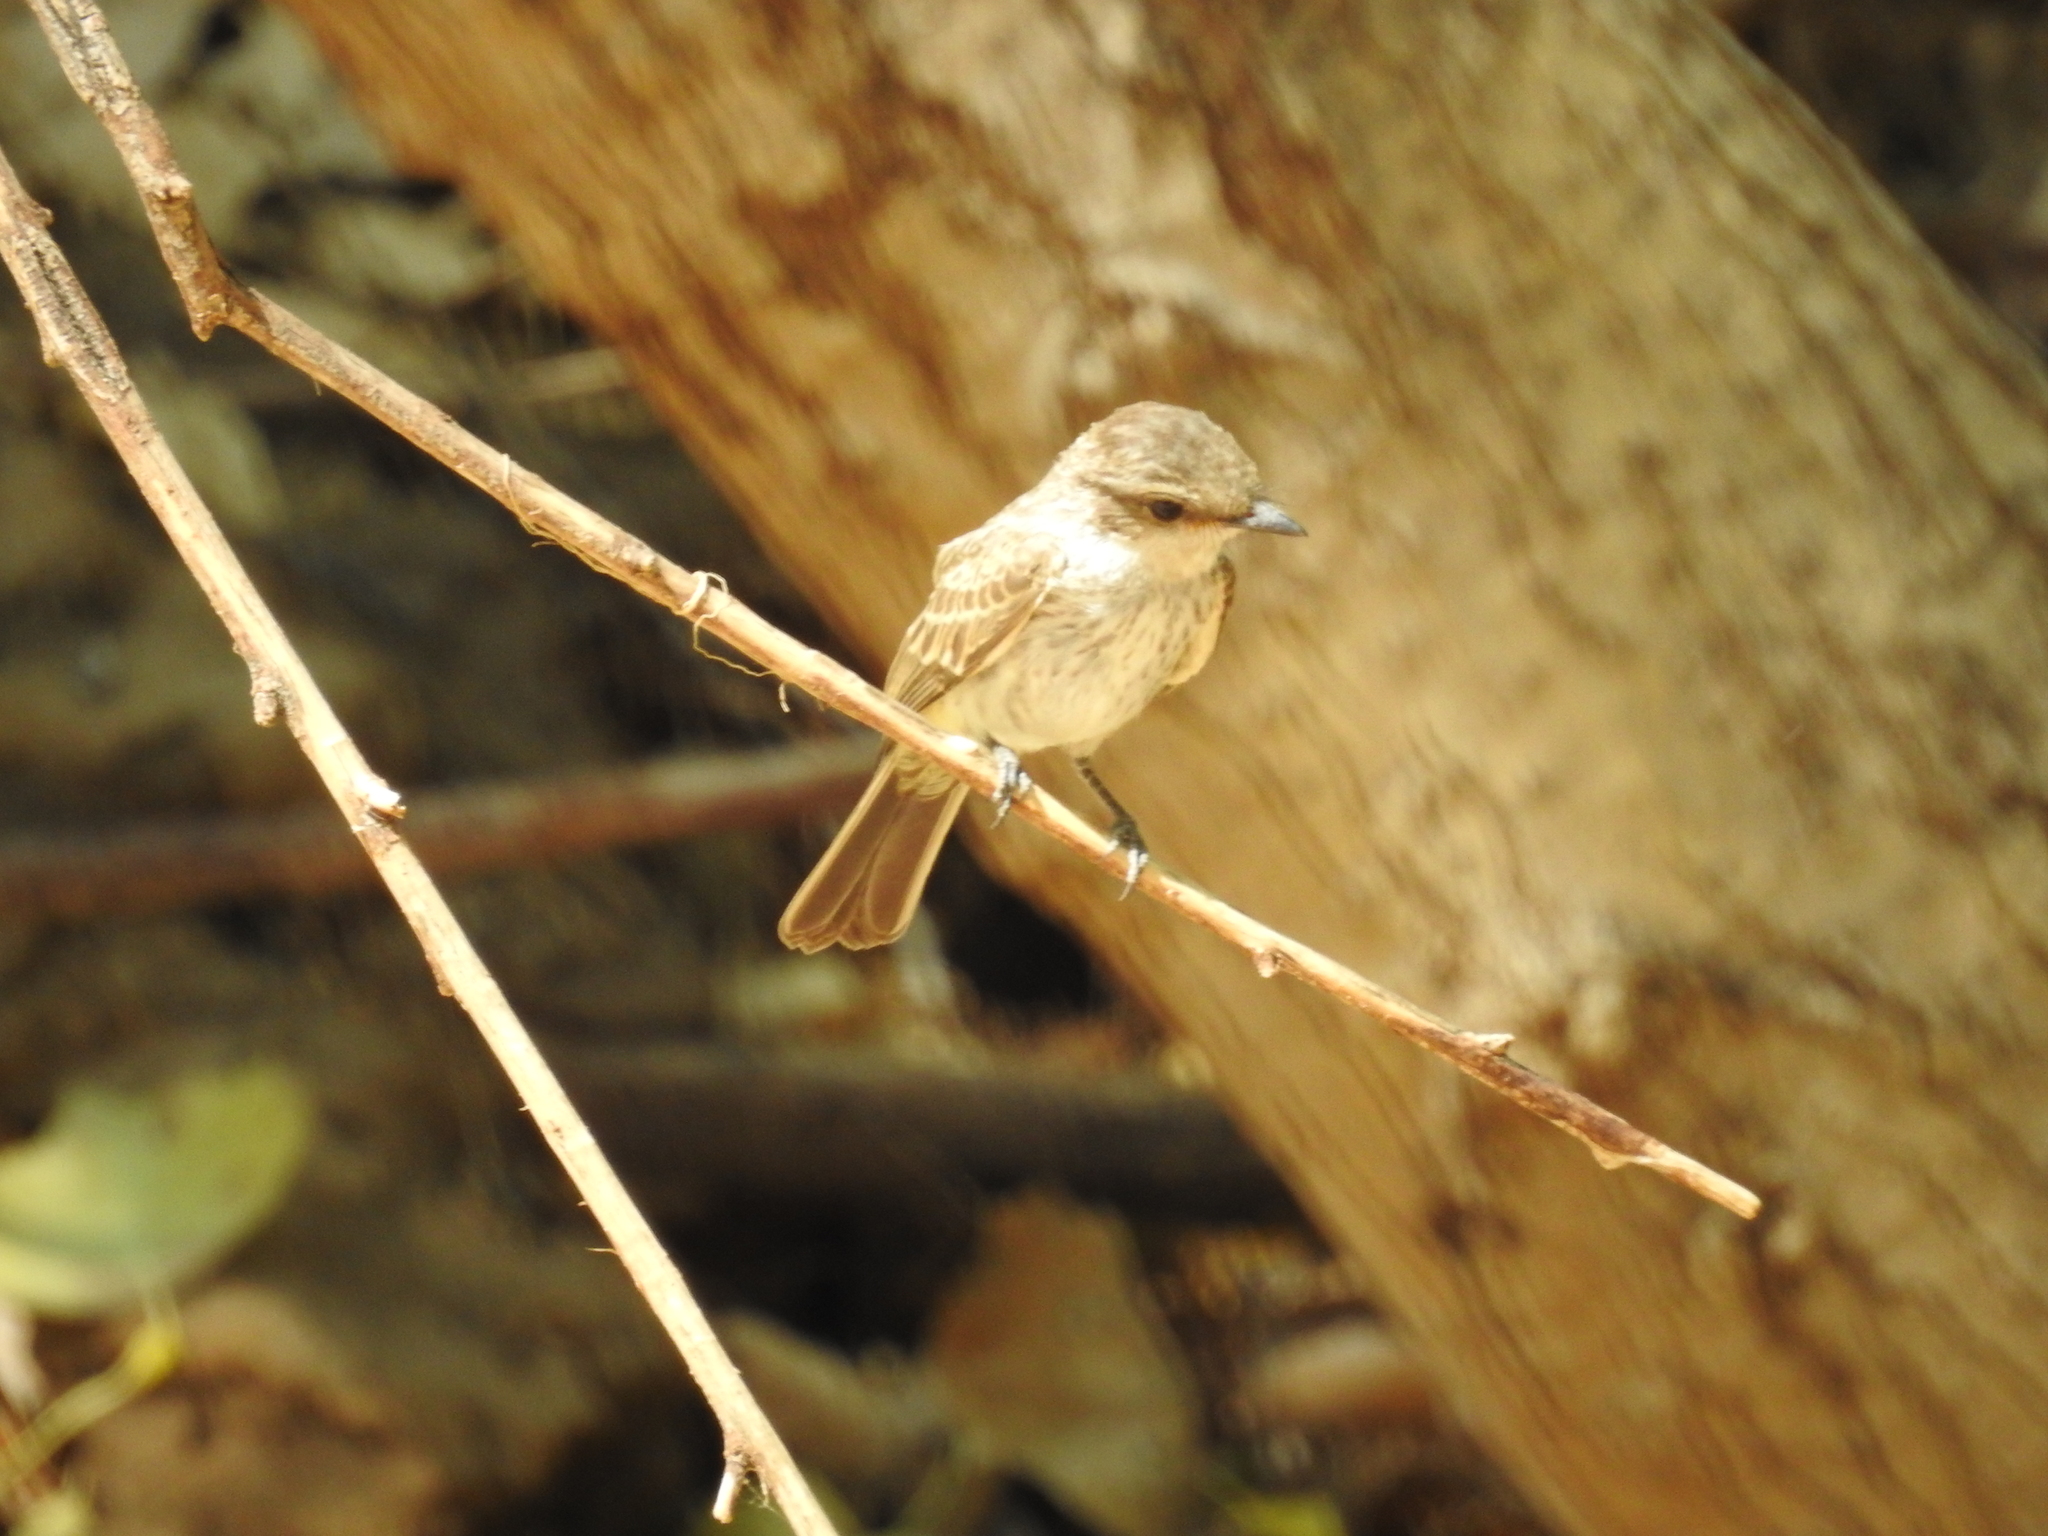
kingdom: Animalia
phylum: Chordata
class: Aves
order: Passeriformes
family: Tyrannidae
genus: Pyrocephalus
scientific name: Pyrocephalus rubinus
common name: Vermilion flycatcher
